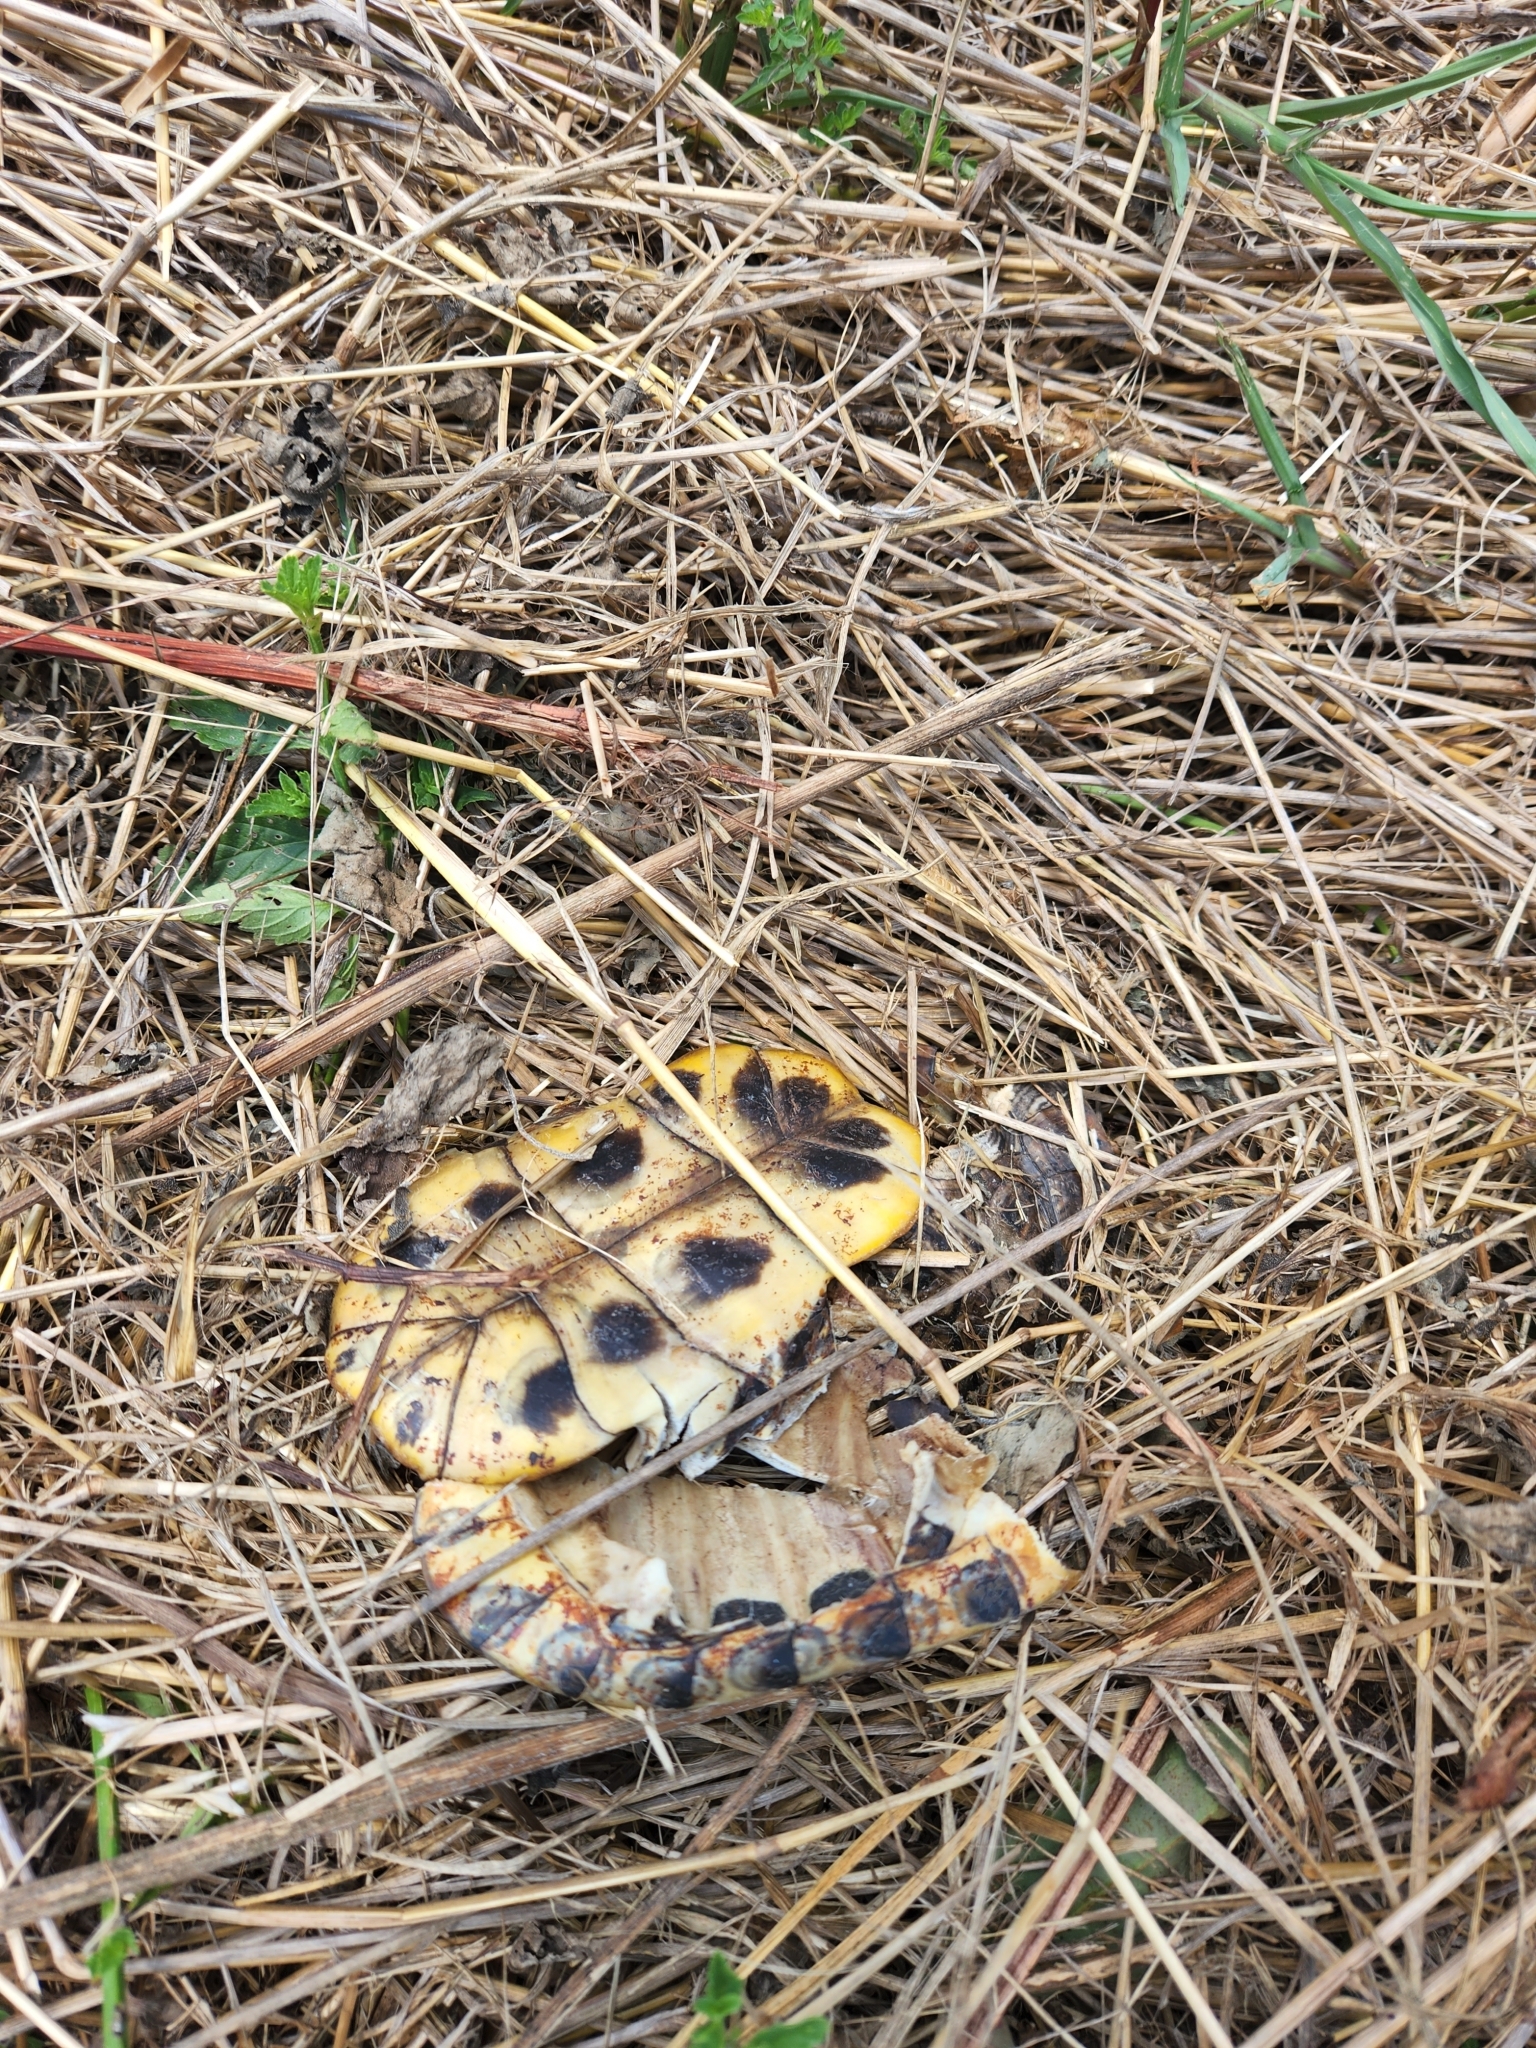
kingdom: Animalia
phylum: Chordata
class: Testudines
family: Emydidae
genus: Trachemys
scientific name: Trachemys scripta
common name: Slider
